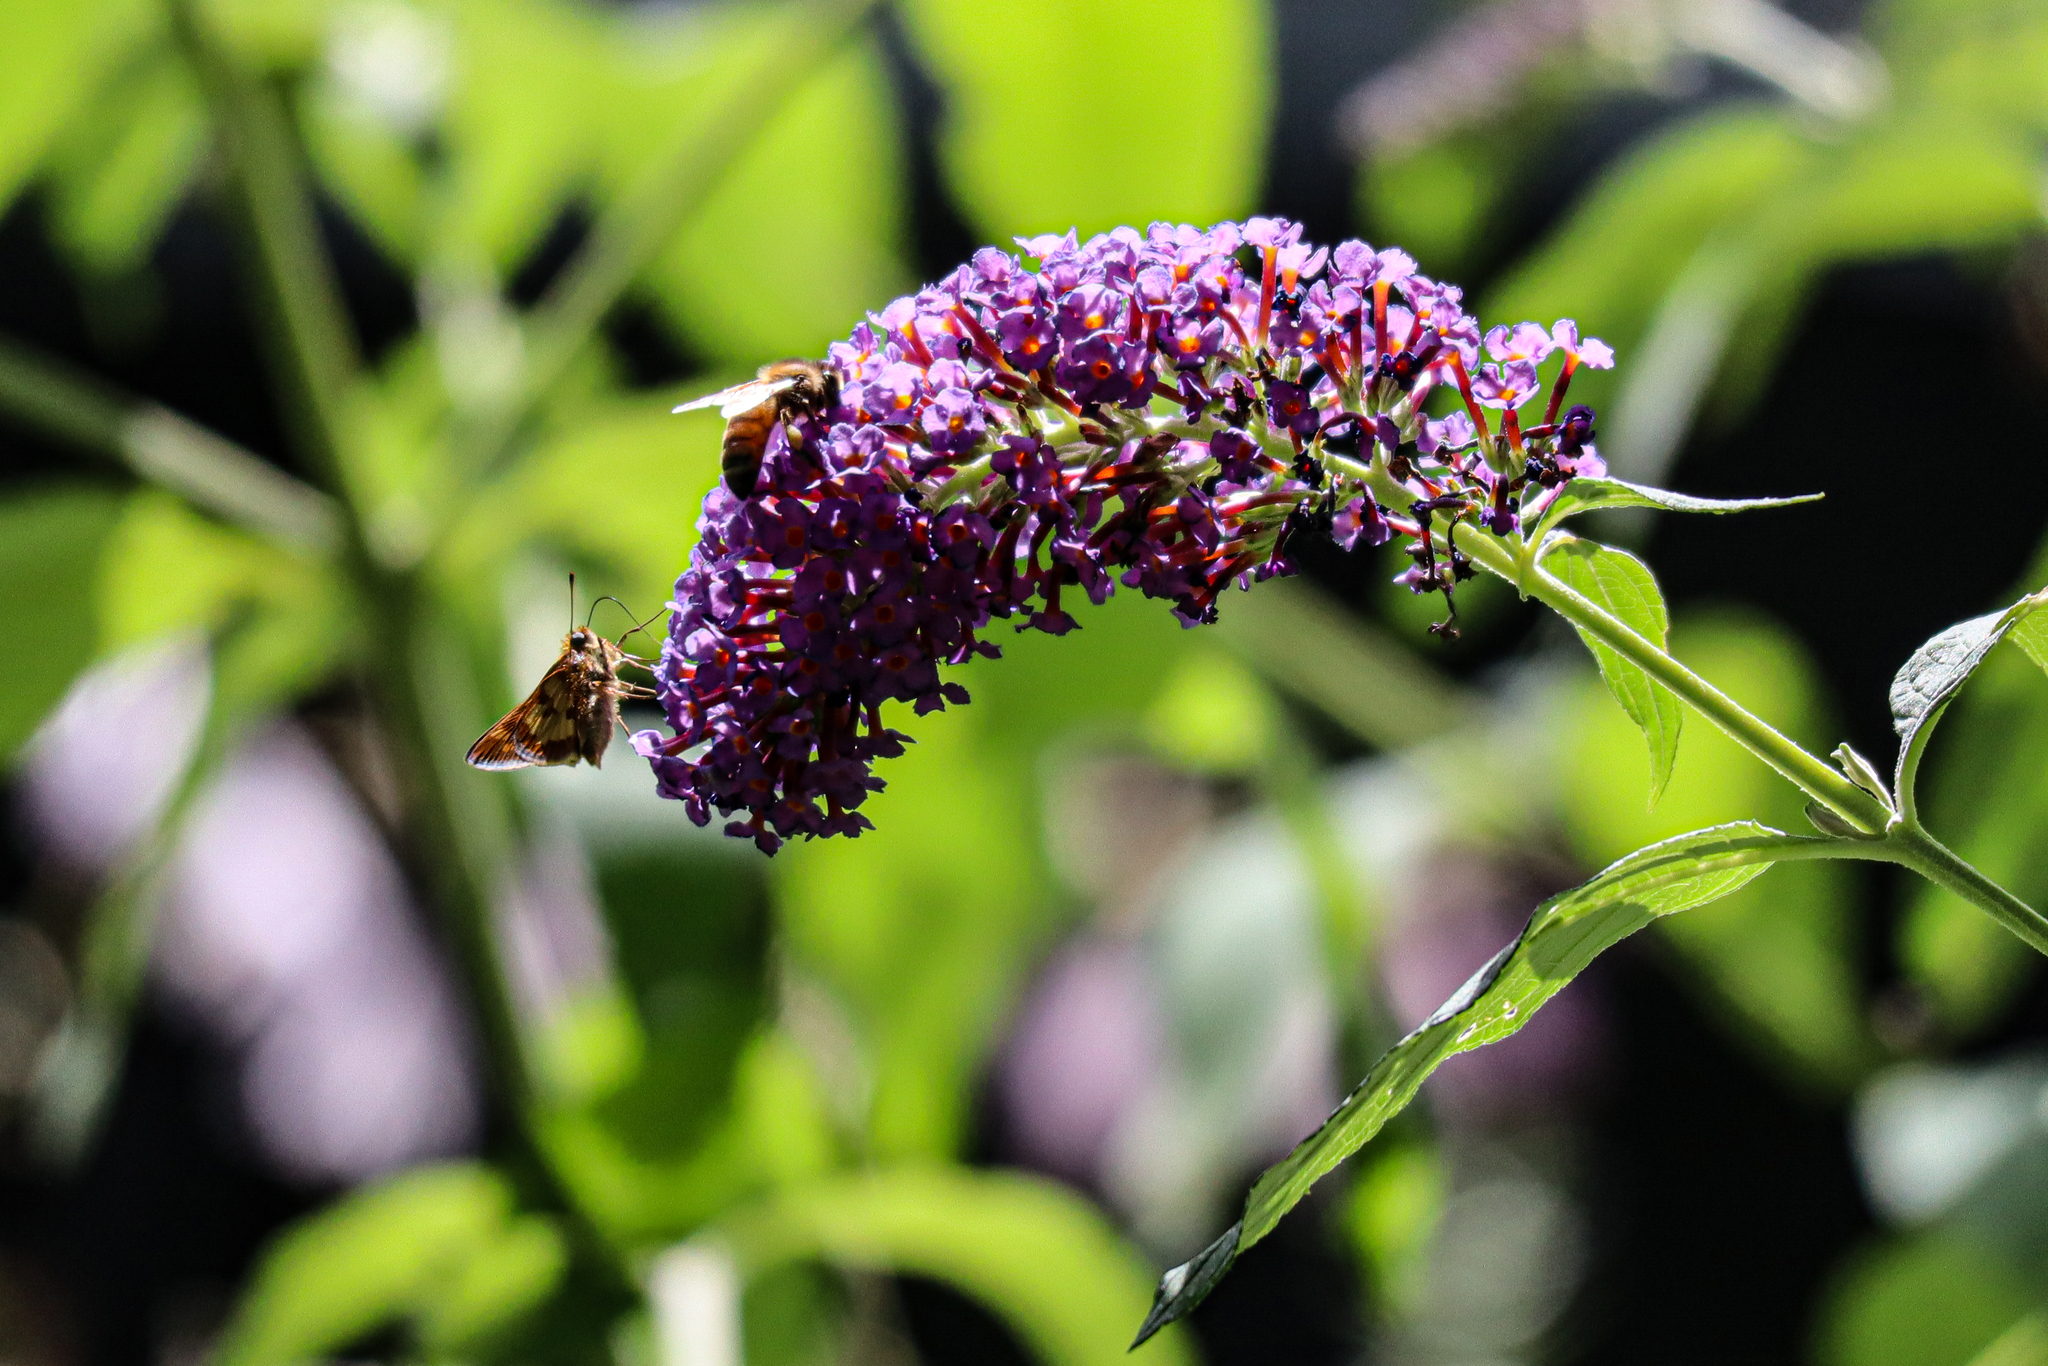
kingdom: Animalia
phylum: Arthropoda
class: Insecta
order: Lepidoptera
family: Hesperiidae
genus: Polites
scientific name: Polites coras
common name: Peck's skipper
